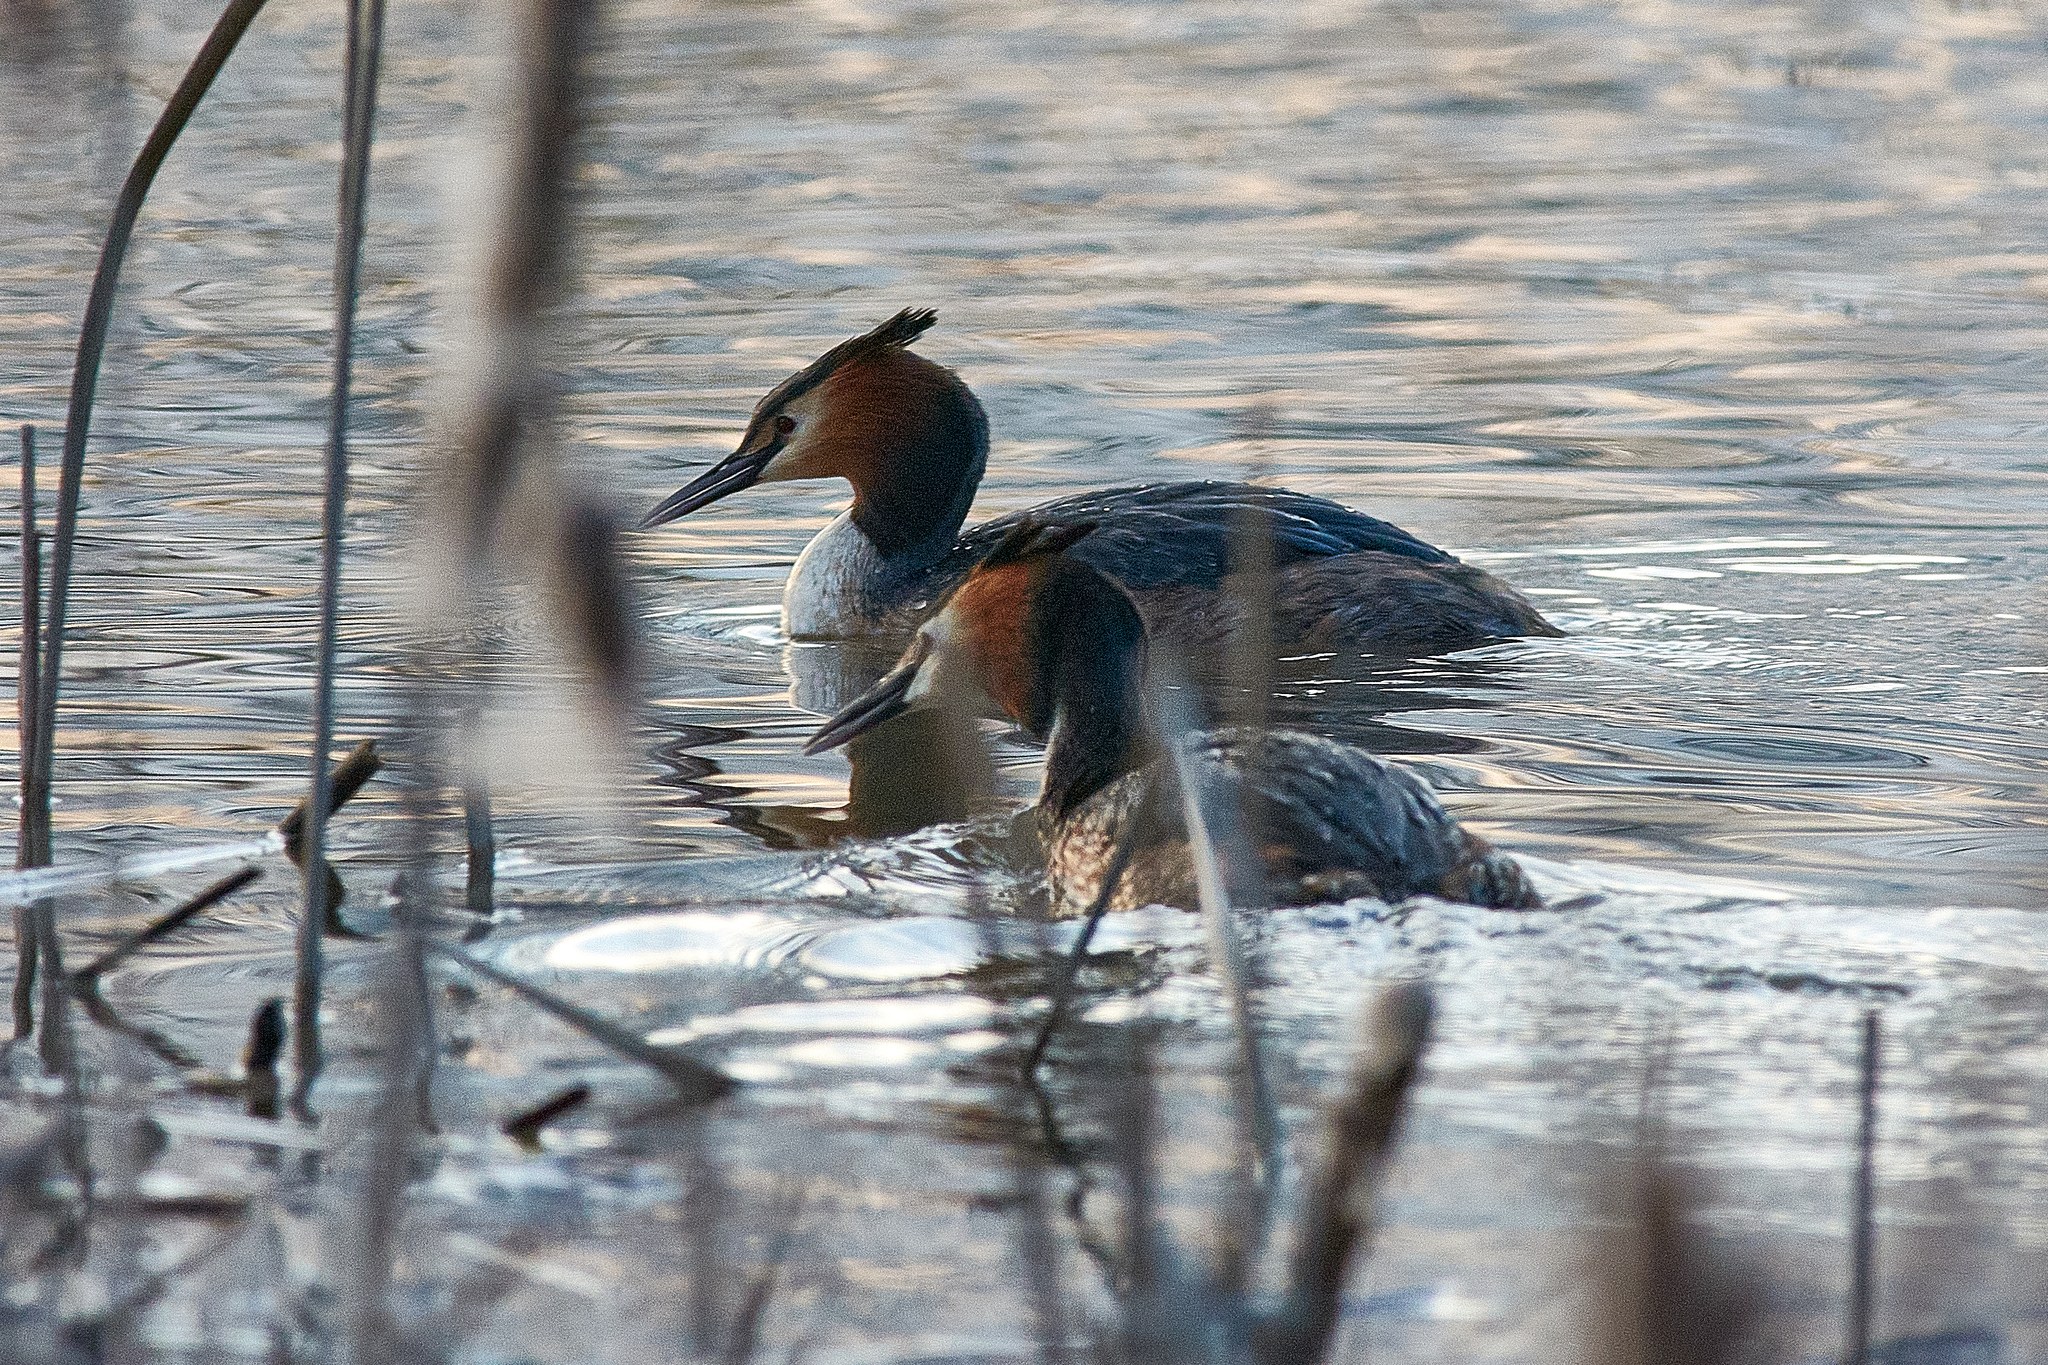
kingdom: Animalia
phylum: Chordata
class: Aves
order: Podicipediformes
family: Podicipedidae
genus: Podiceps
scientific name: Podiceps cristatus
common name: Great crested grebe
